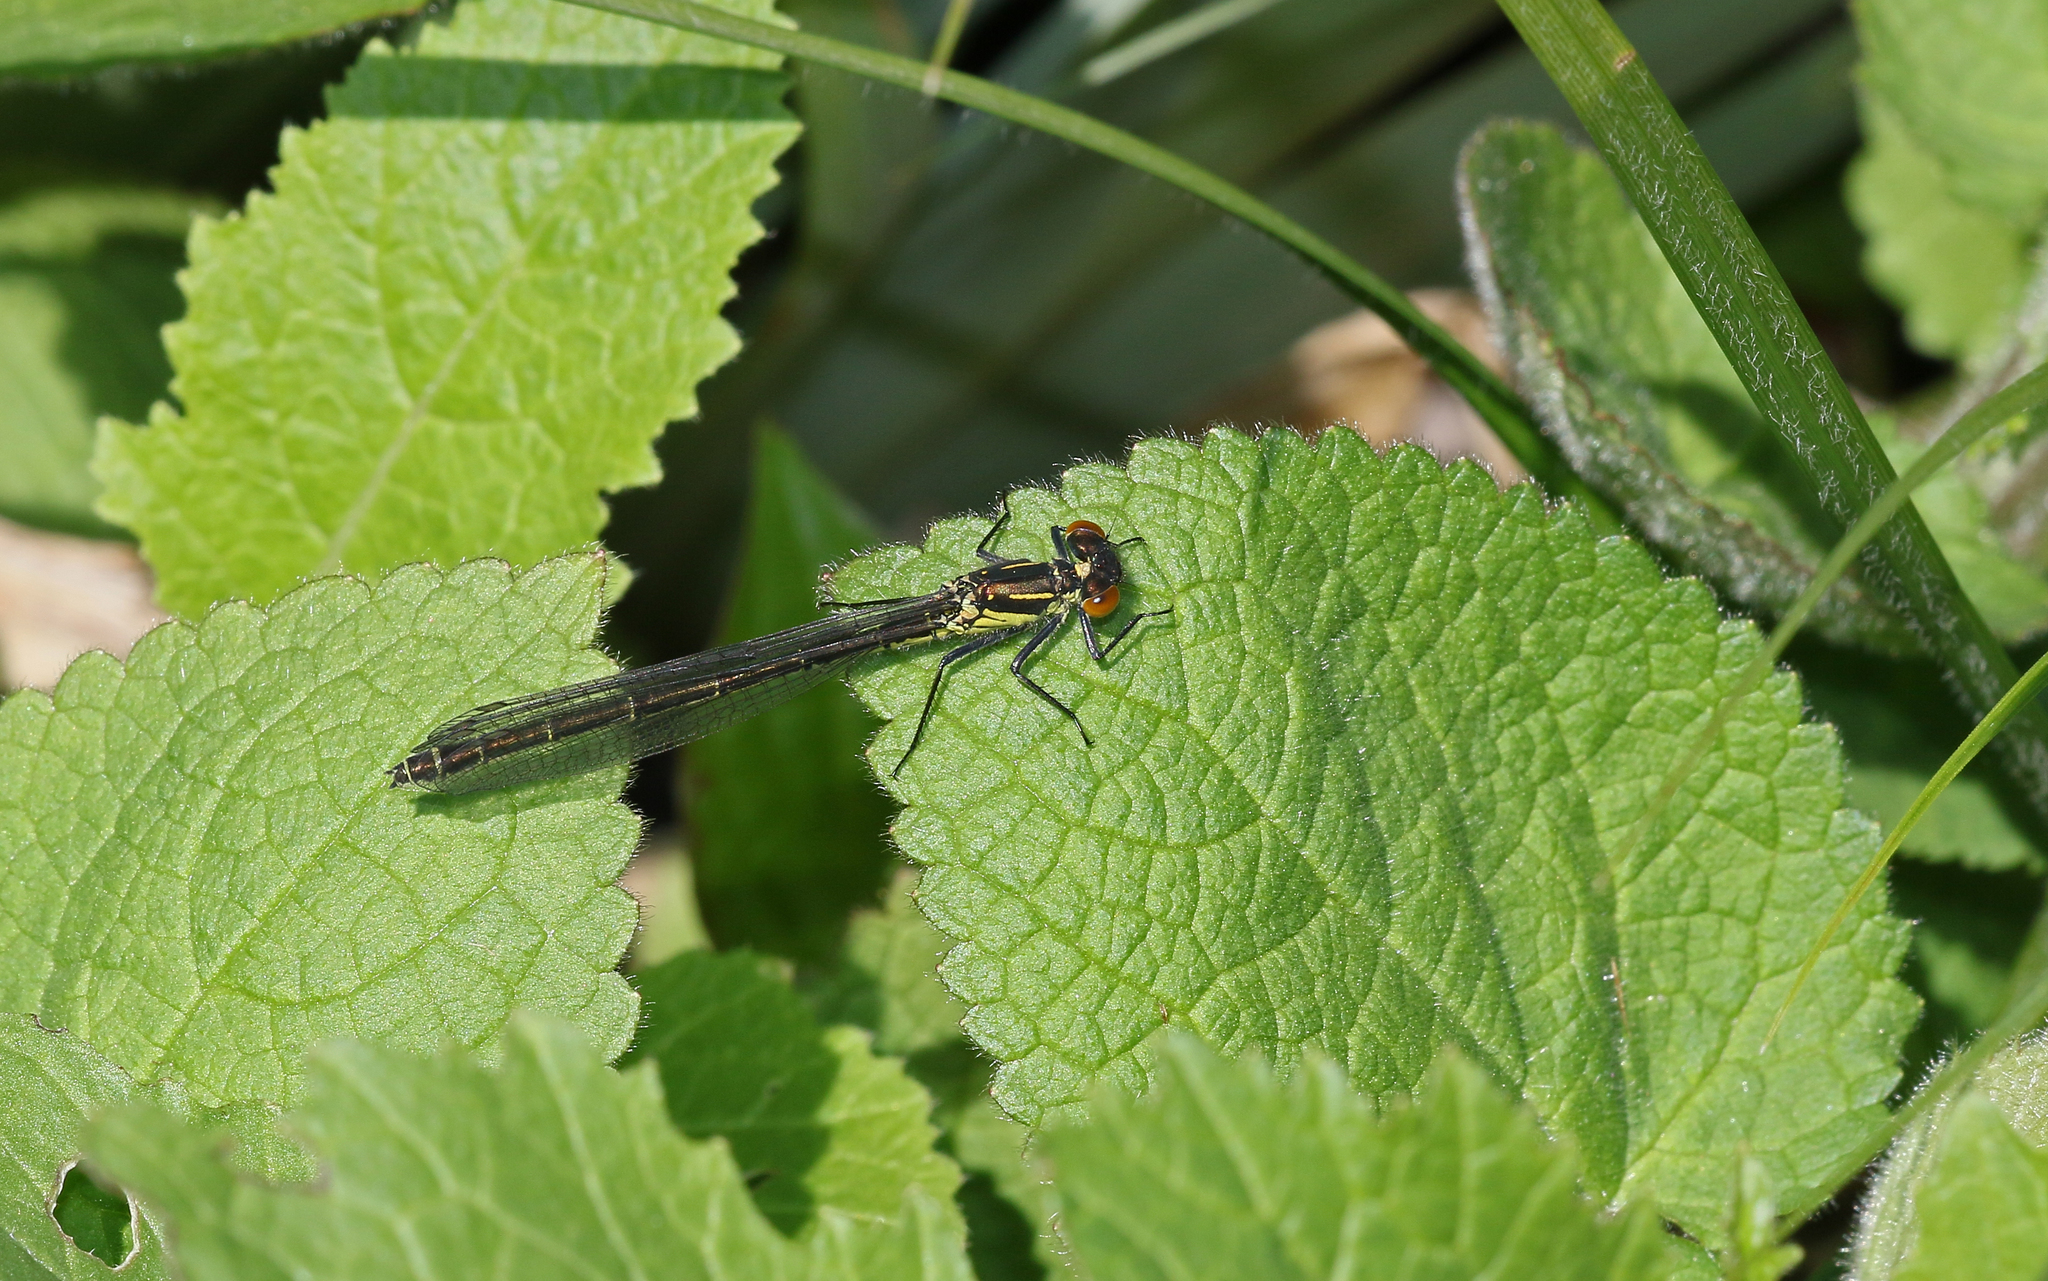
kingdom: Animalia
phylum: Arthropoda
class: Insecta
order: Odonata
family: Coenagrionidae
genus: Erythromma
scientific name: Erythromma najas
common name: Red-eyed damselfly
